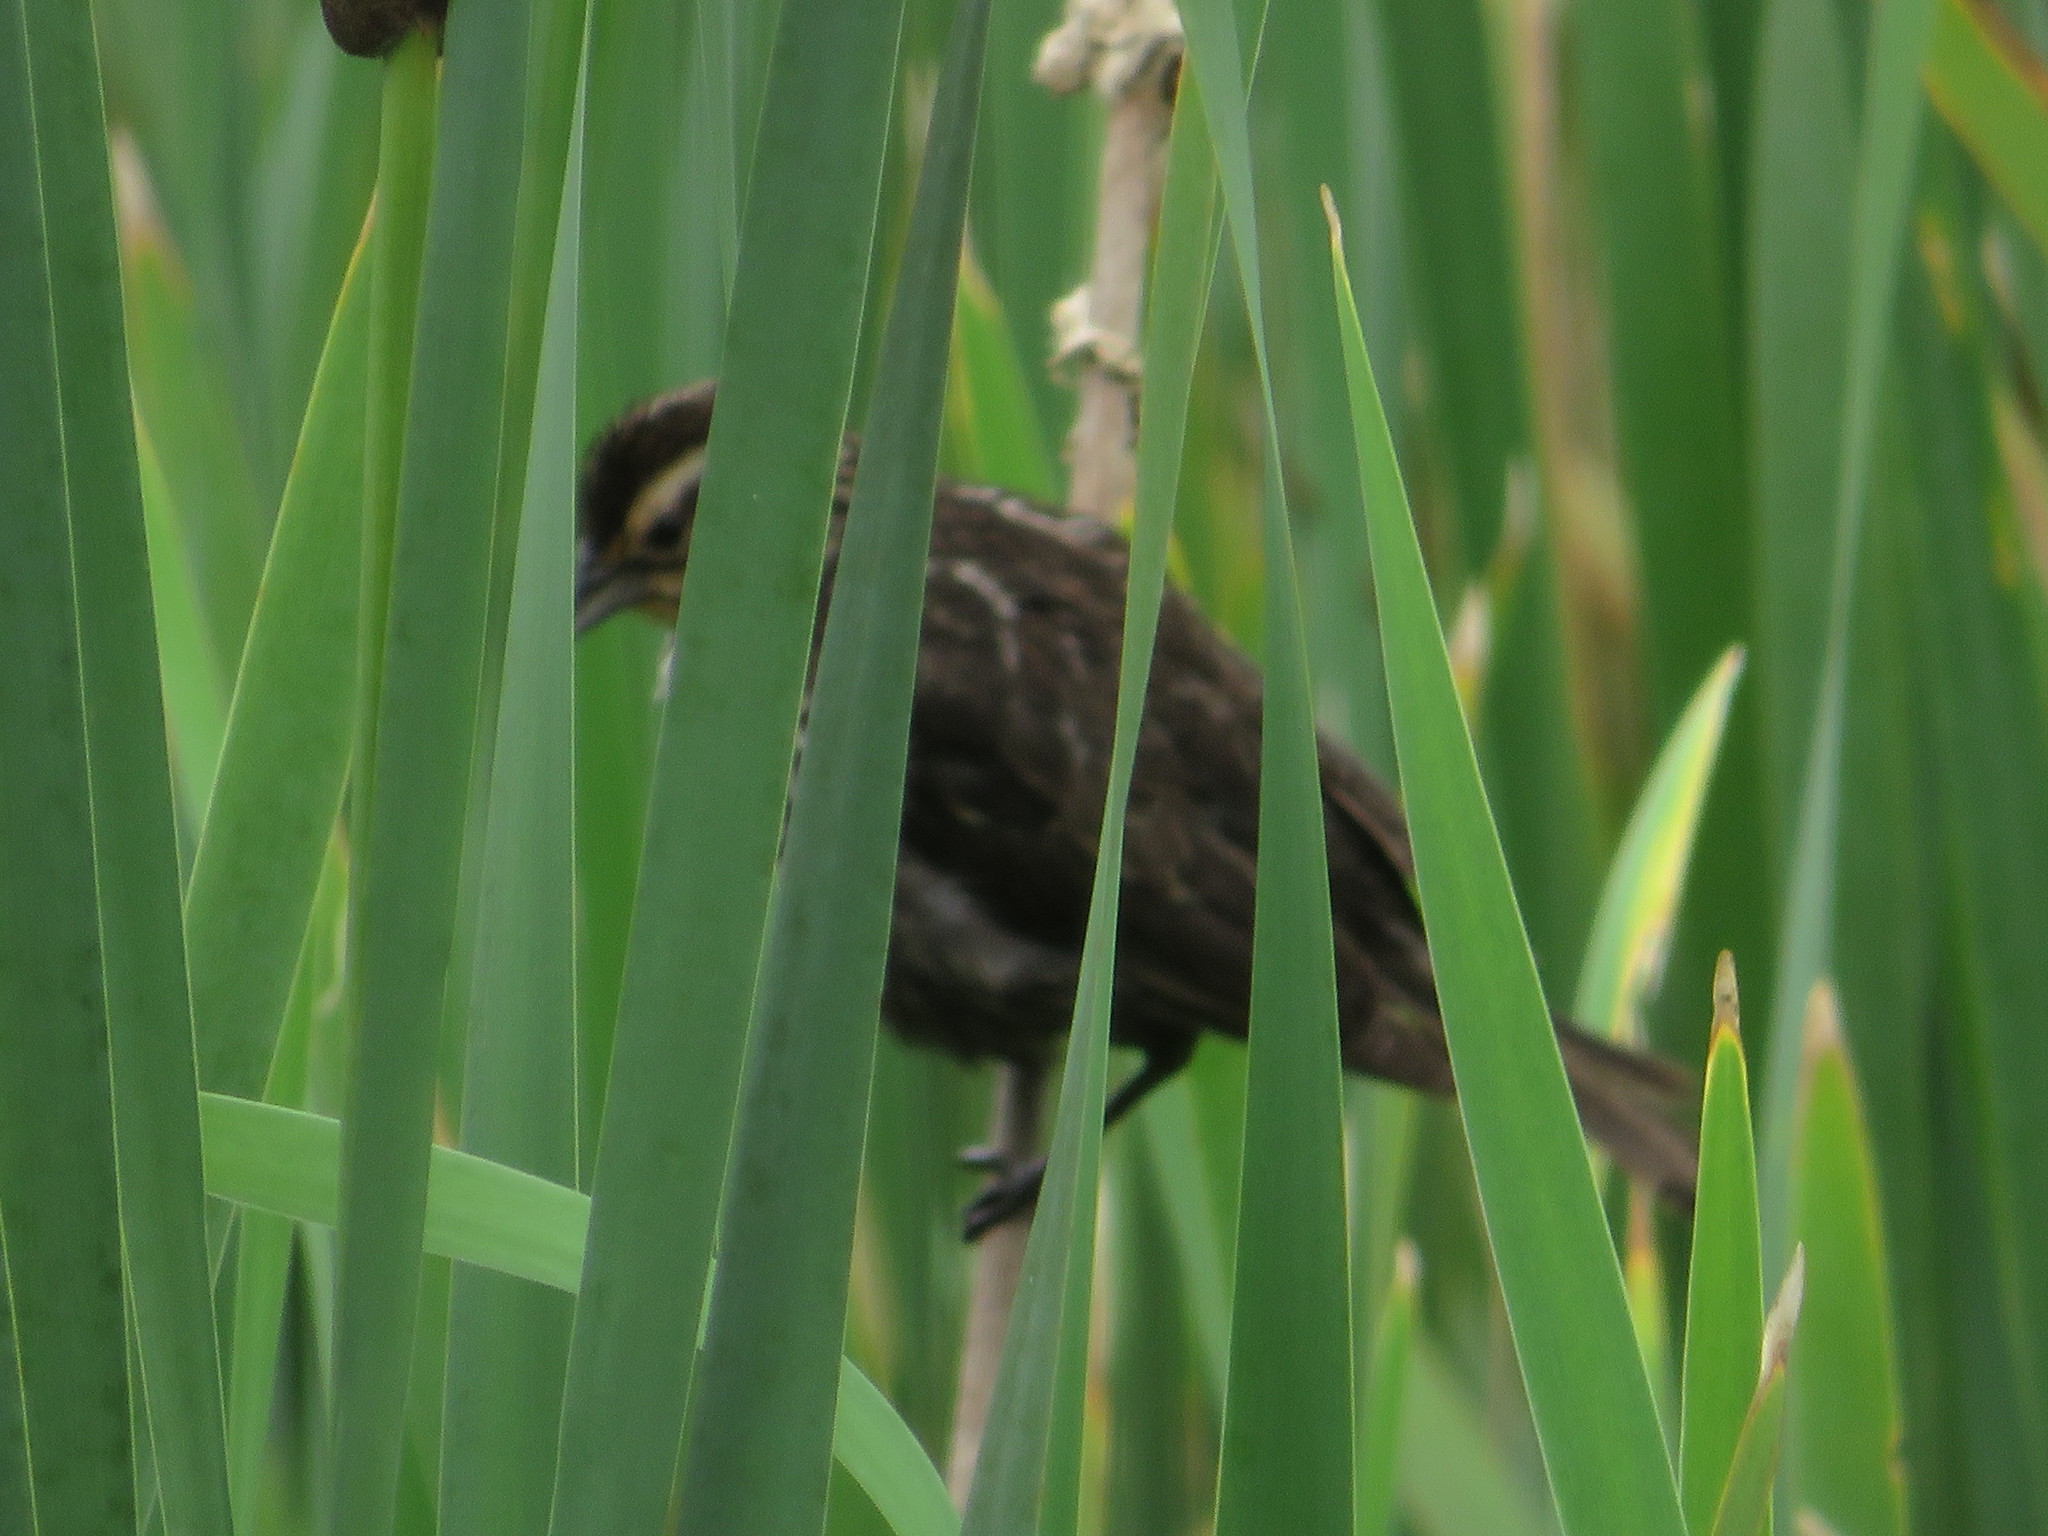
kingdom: Animalia
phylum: Chordata
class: Aves
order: Passeriformes
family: Icteridae
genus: Agelaius
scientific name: Agelaius phoeniceus
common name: Red-winged blackbird
